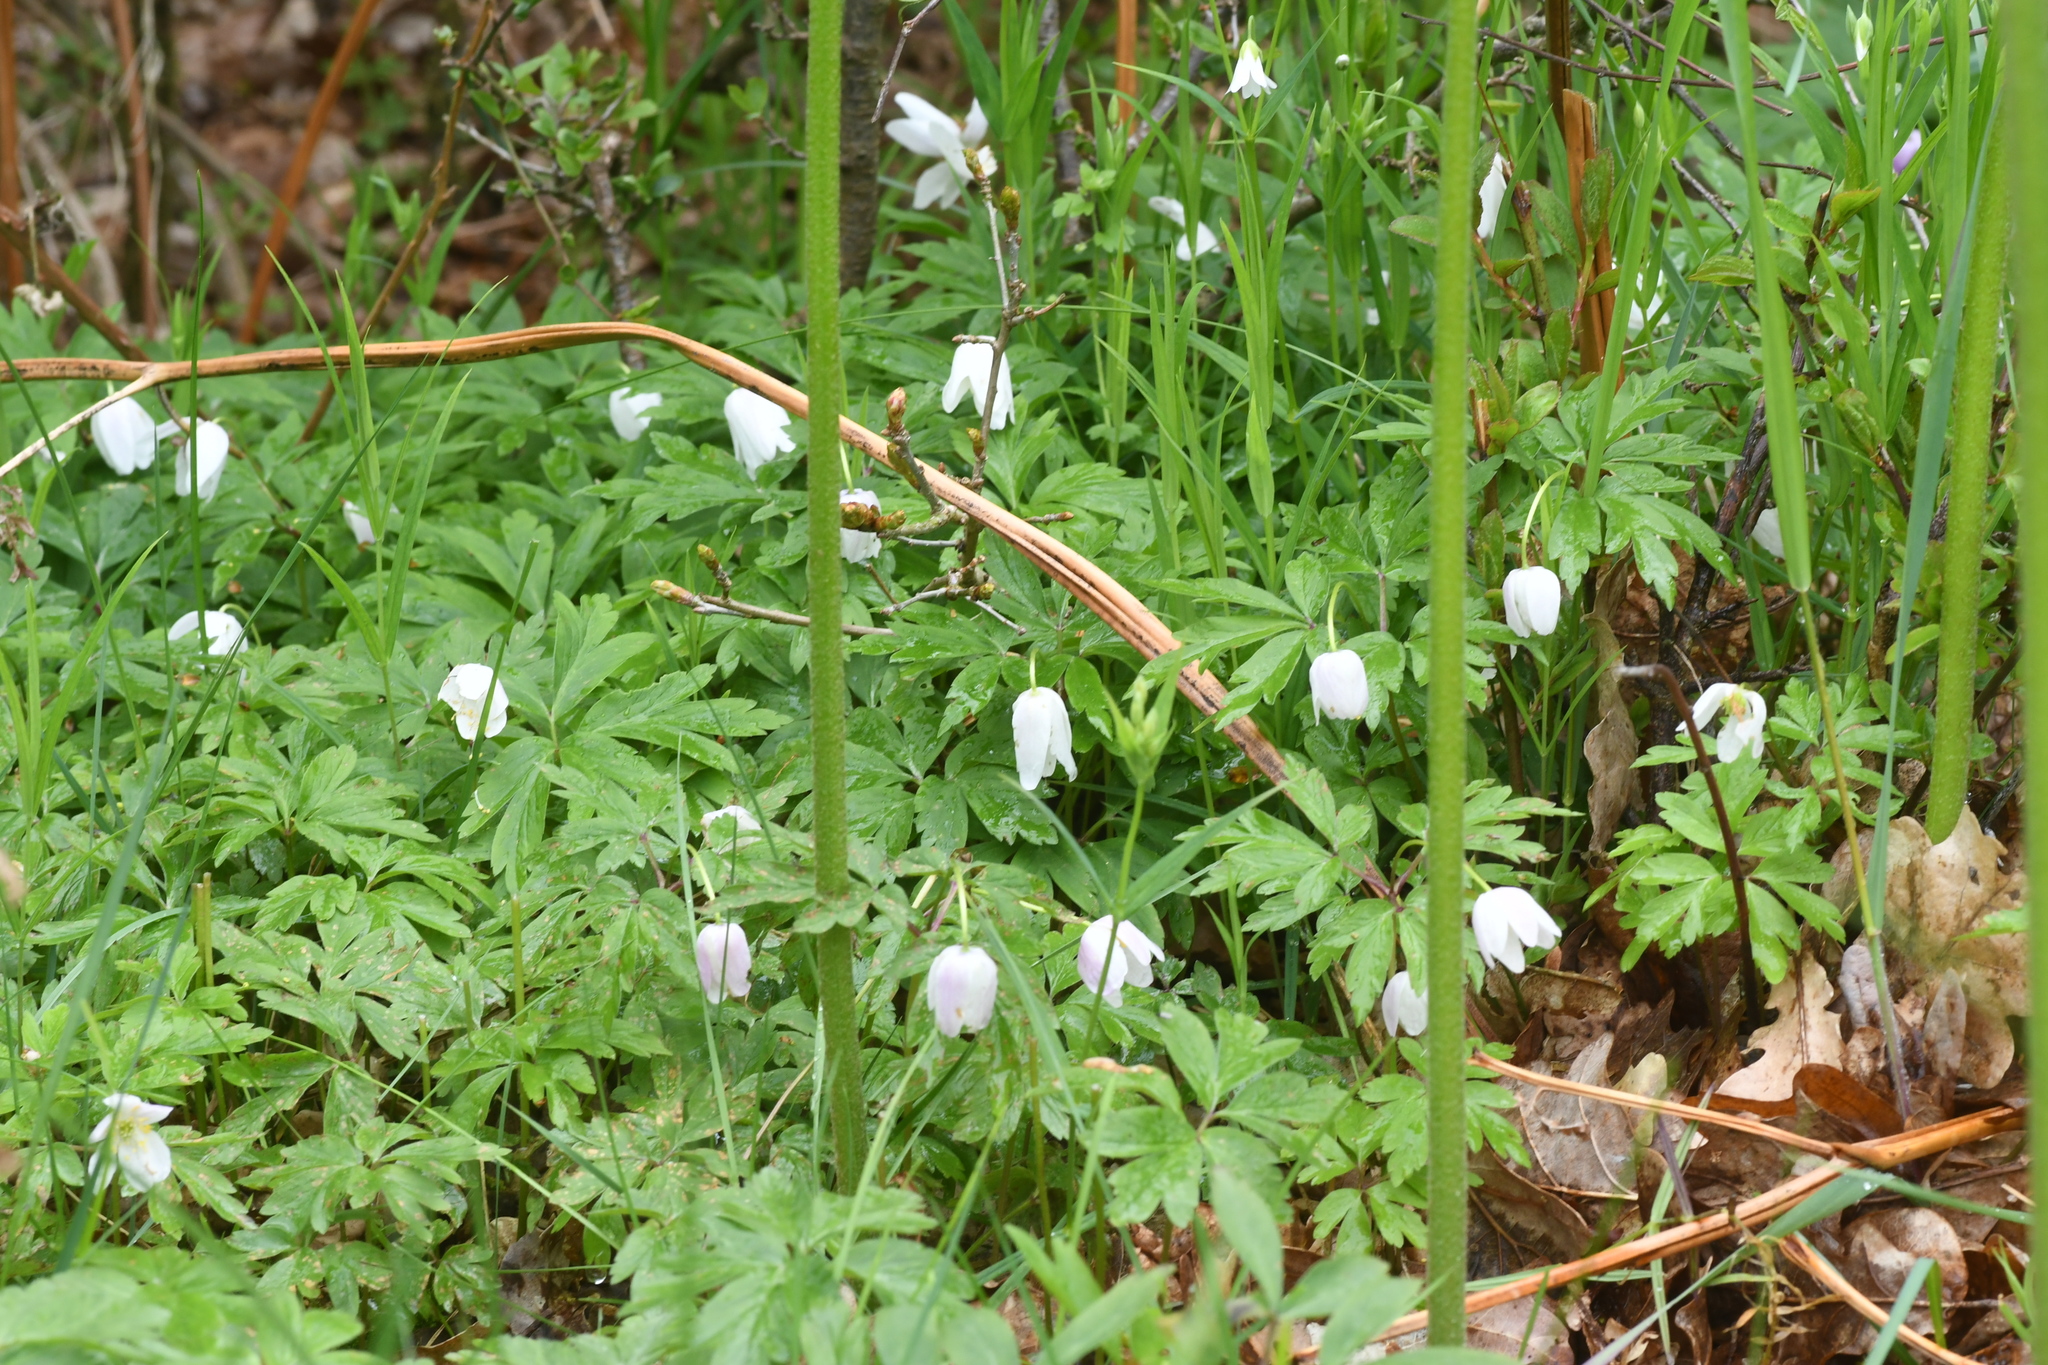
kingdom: Plantae
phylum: Tracheophyta
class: Magnoliopsida
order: Ranunculales
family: Ranunculaceae
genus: Anemone
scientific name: Anemone nemorosa
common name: Wood anemone
